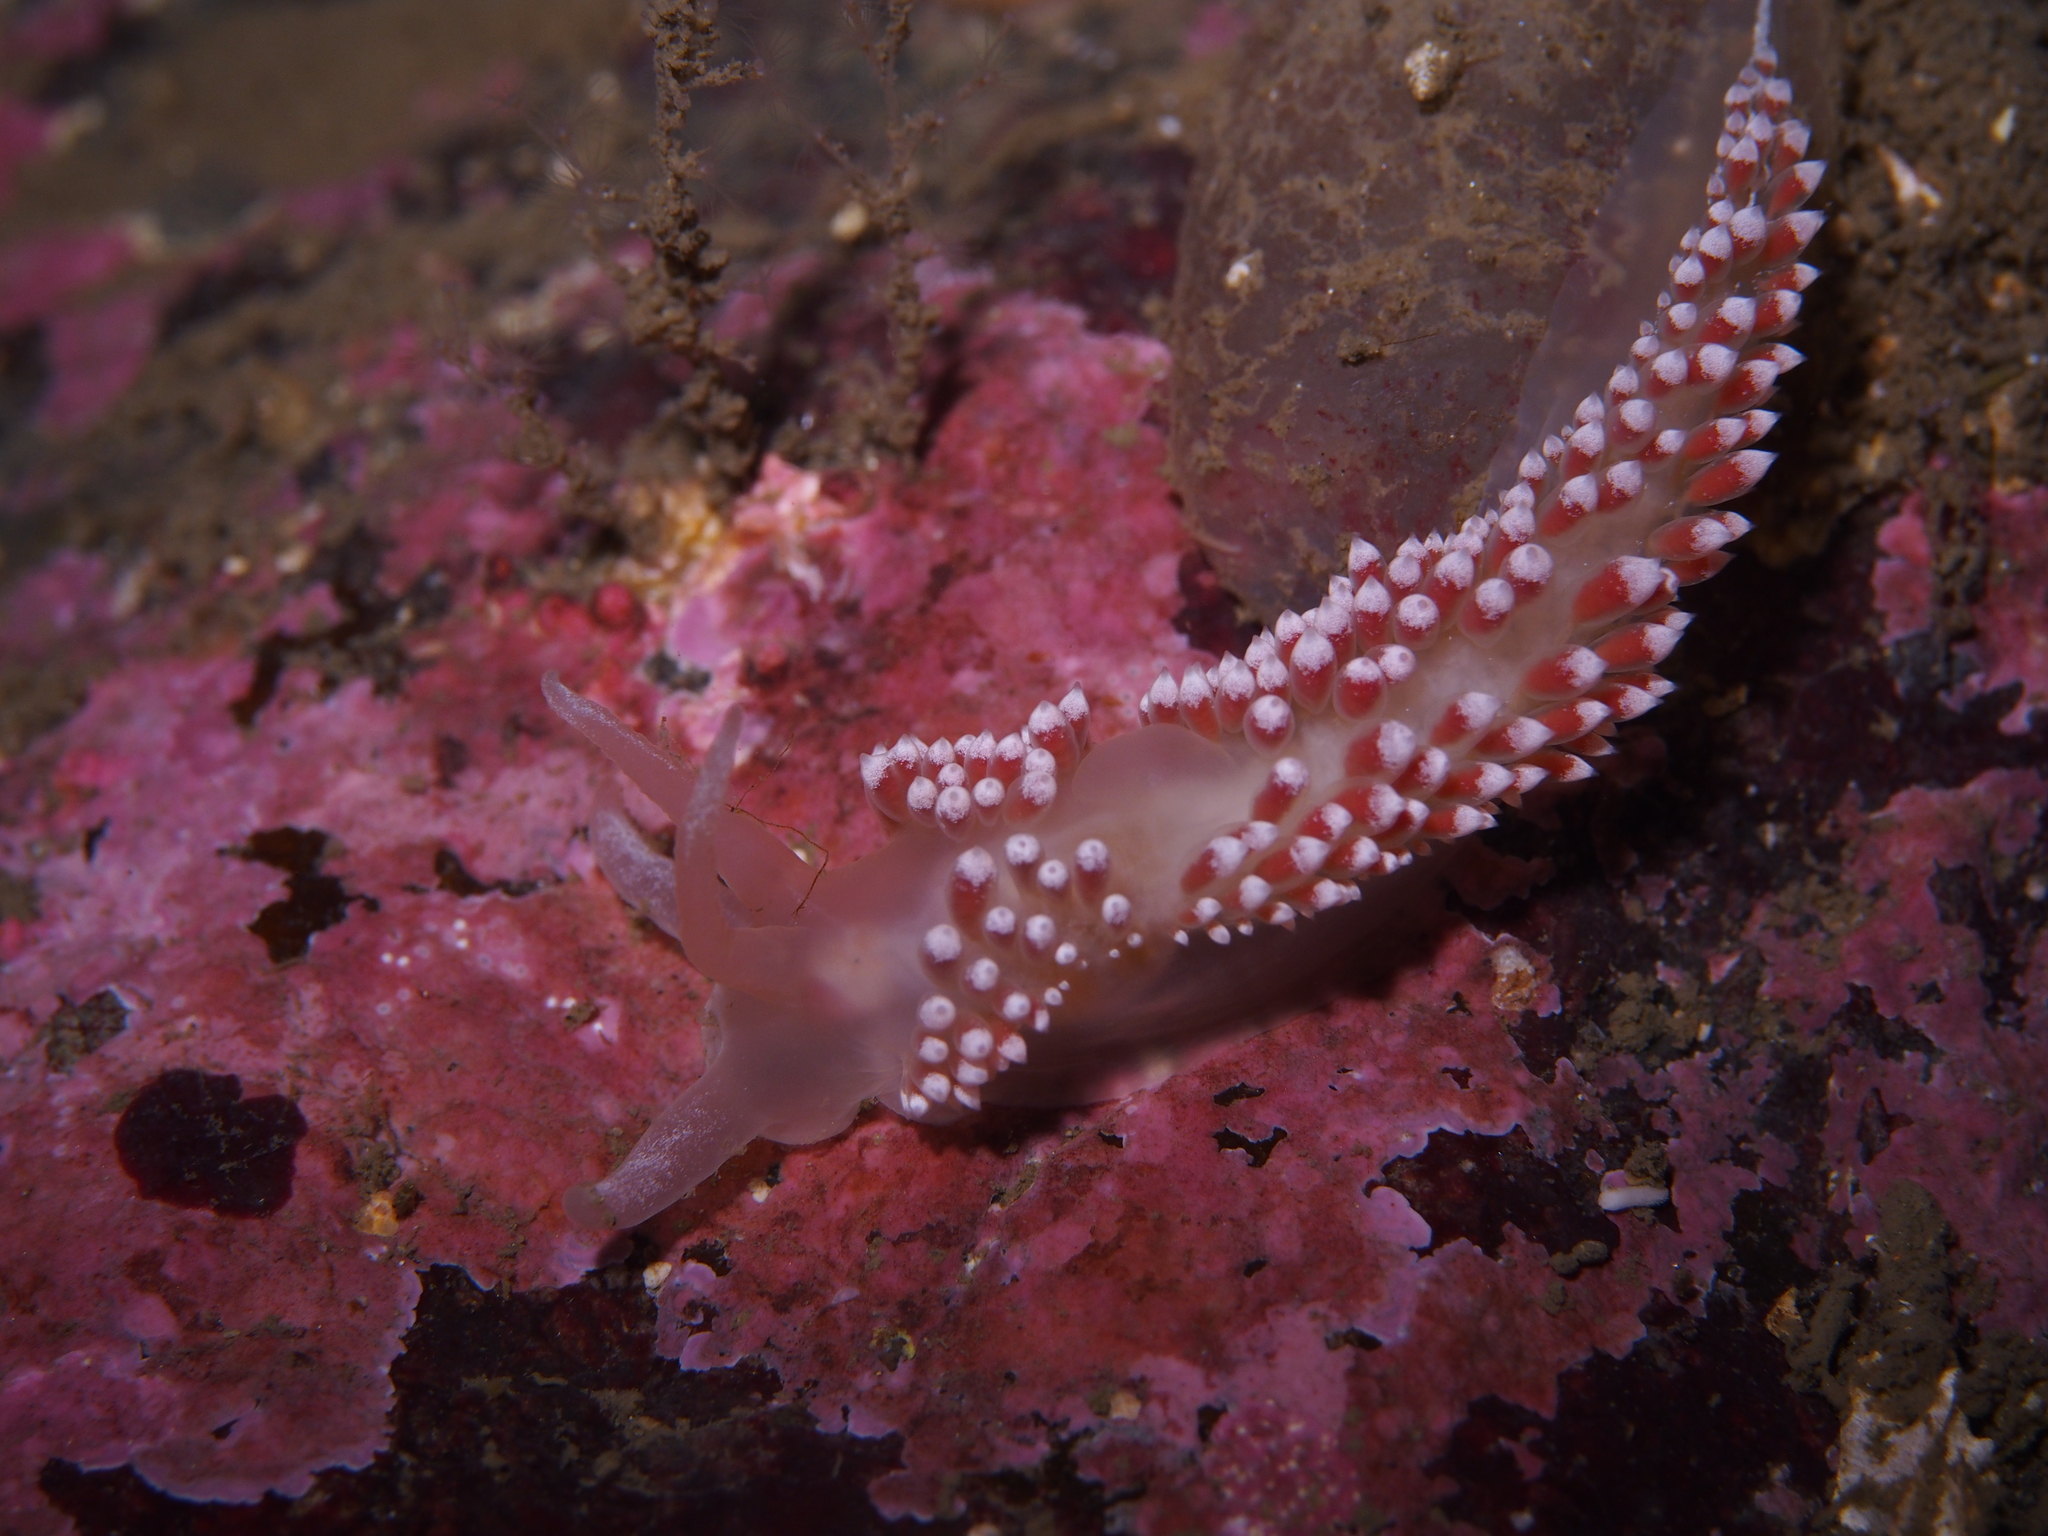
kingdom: Animalia
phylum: Mollusca
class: Gastropoda
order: Nudibranchia
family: Coryphellidae
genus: Coryphella
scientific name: Coryphella verrucosa
